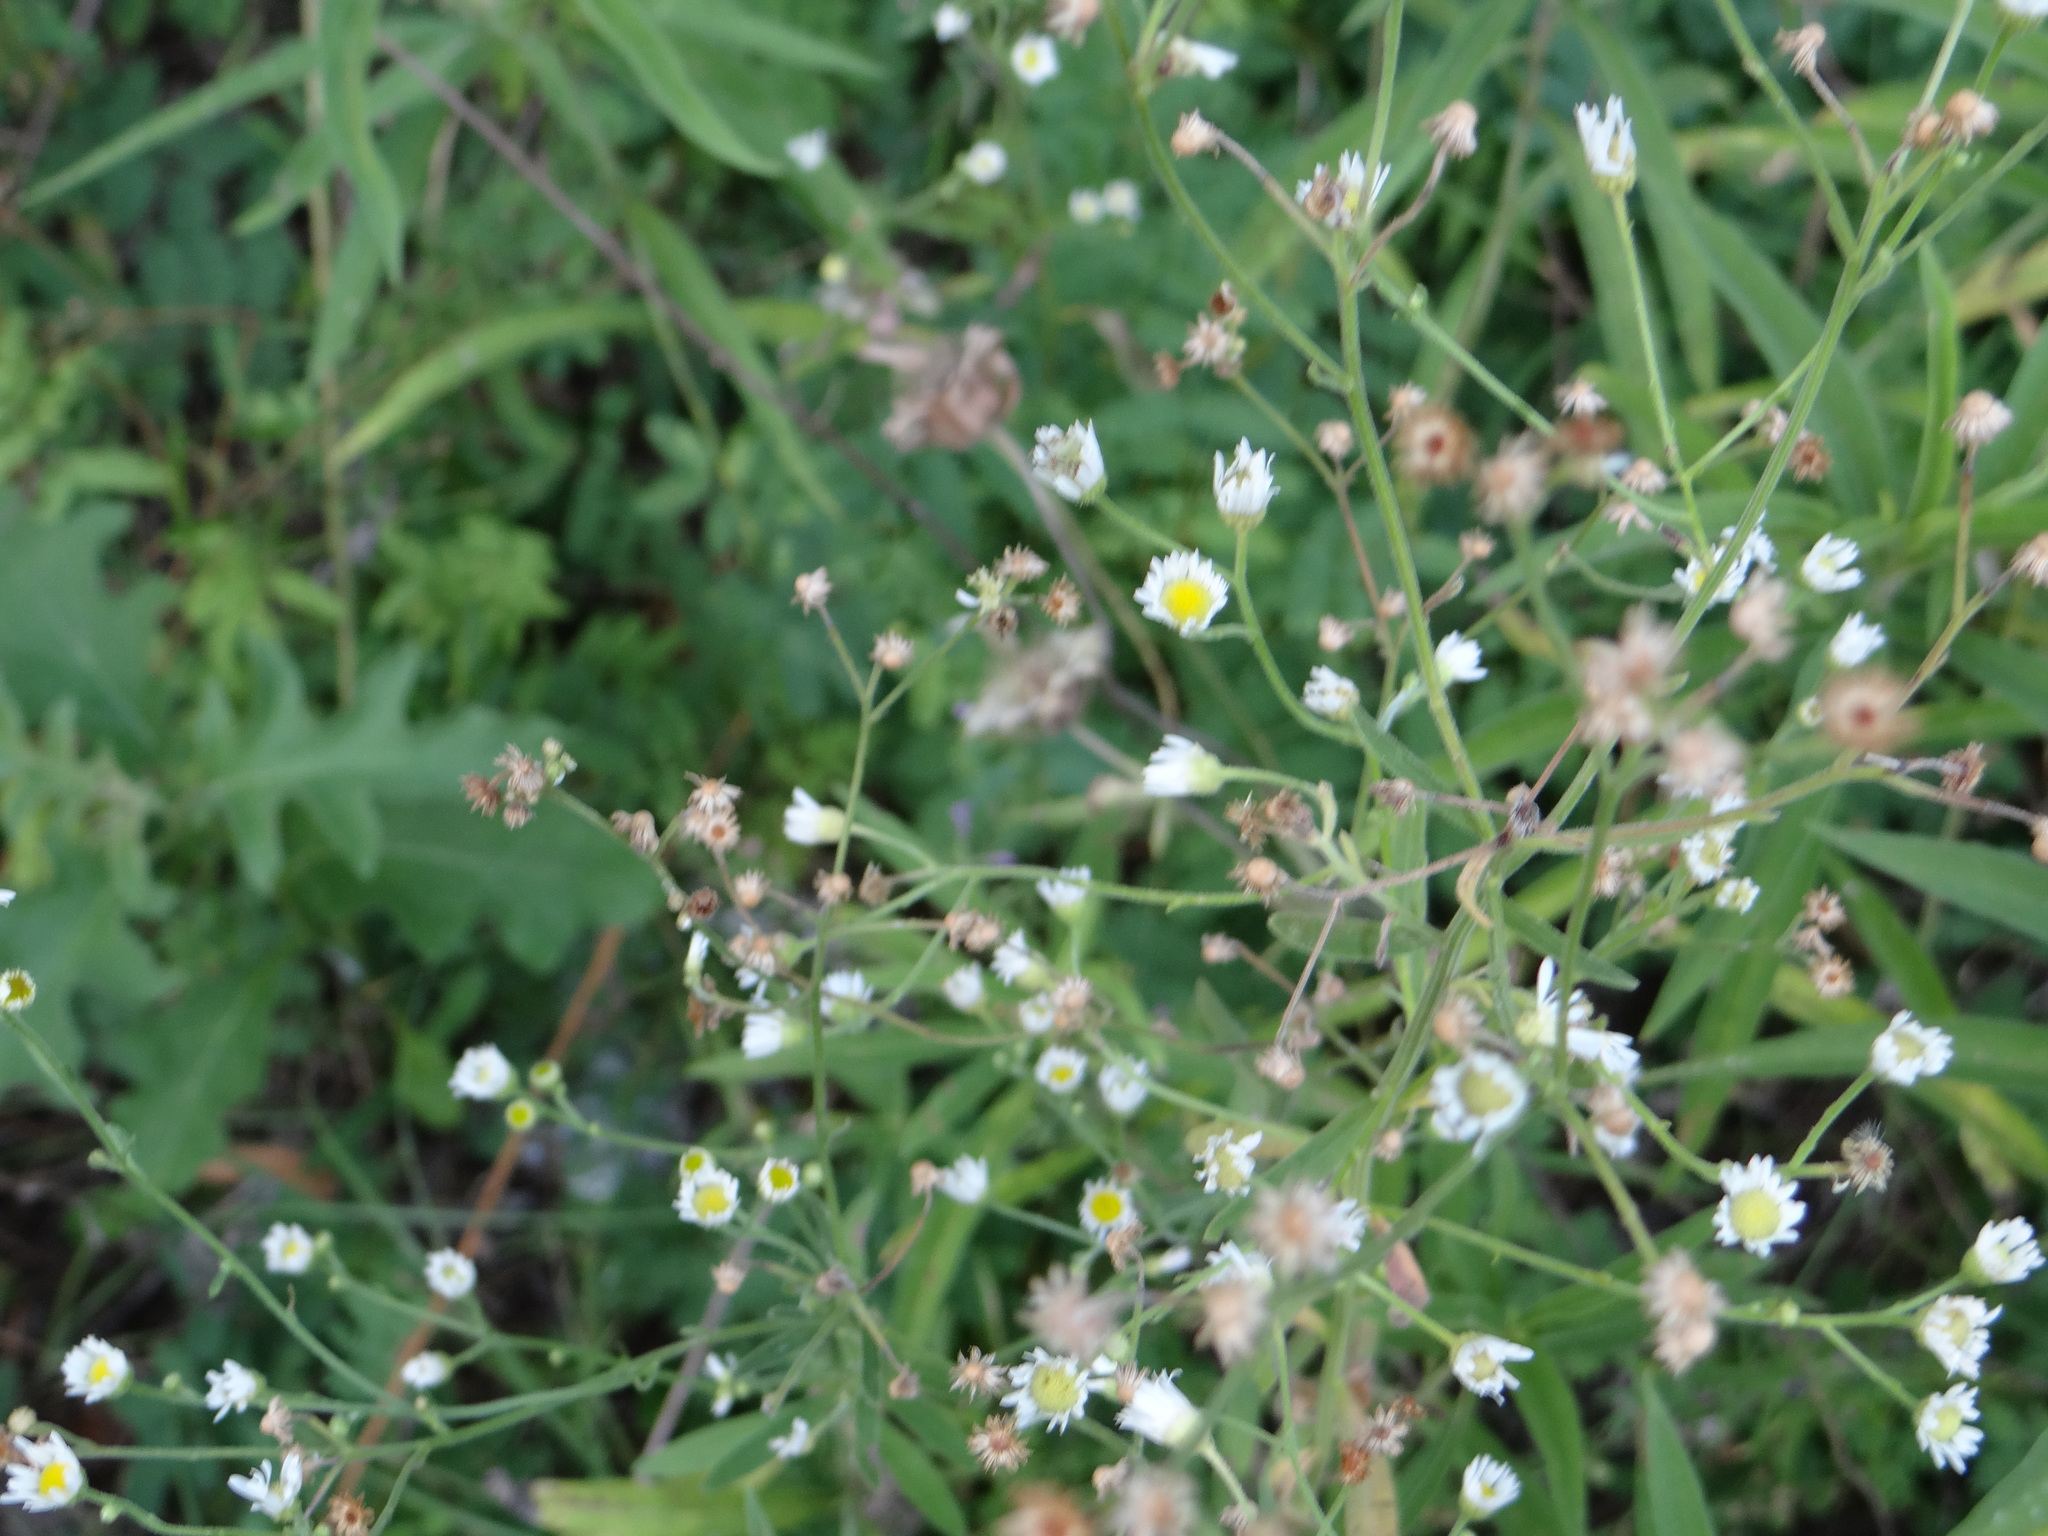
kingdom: Plantae
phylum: Tracheophyta
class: Magnoliopsida
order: Asterales
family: Asteraceae
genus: Parthenium
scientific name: Parthenium hysterophorus
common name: Santa maria feverfew
